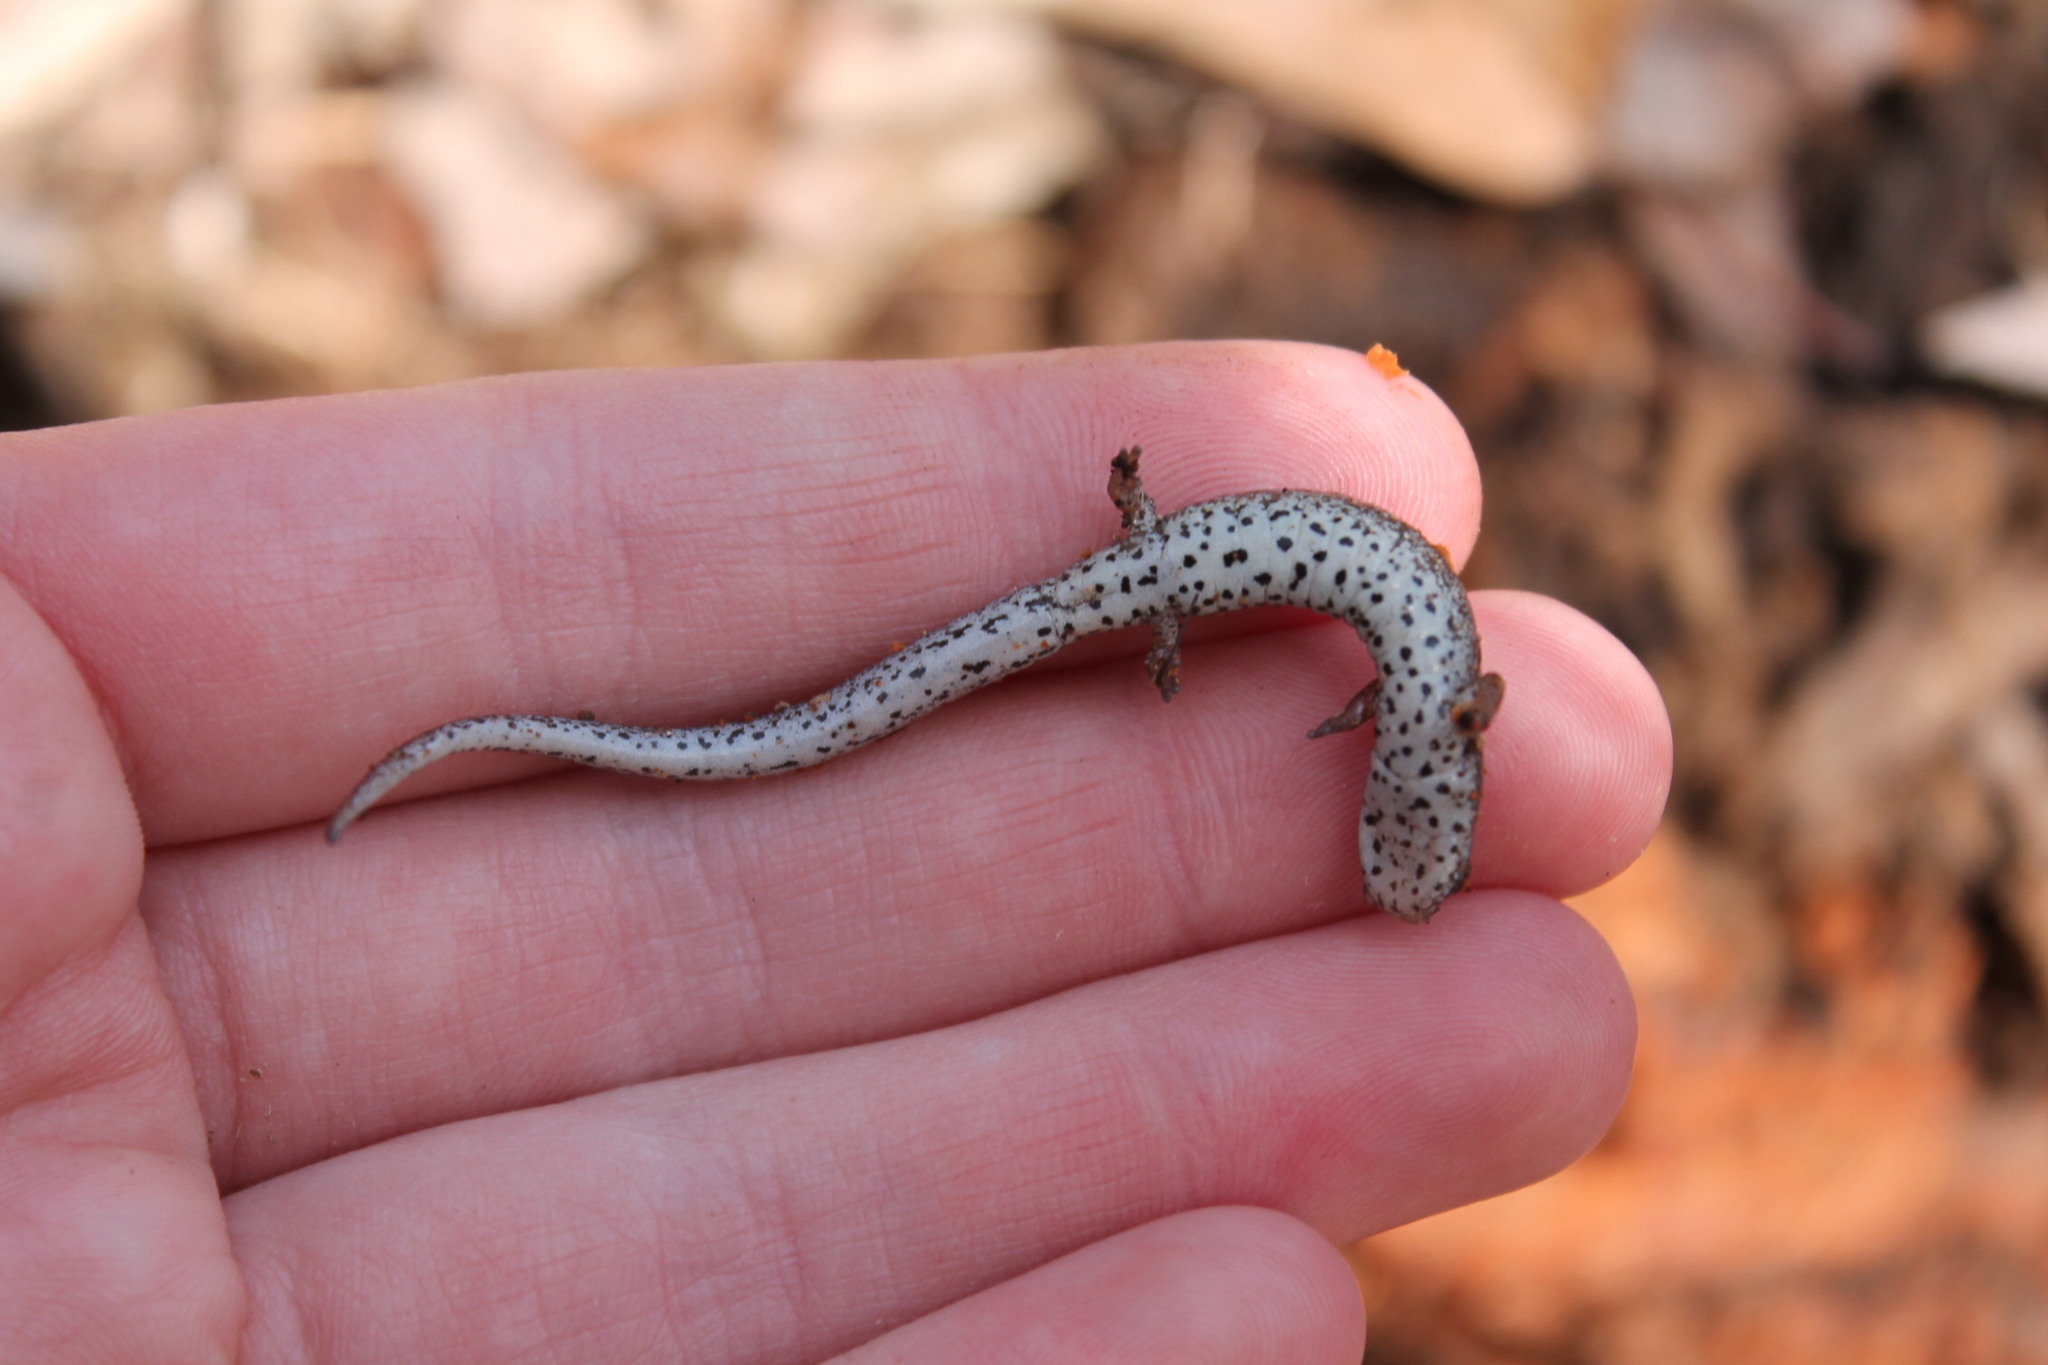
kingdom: Animalia
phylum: Chordata
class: Amphibia
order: Caudata
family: Plethodontidae
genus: Hemidactylium
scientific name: Hemidactylium scutatum
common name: Four-toed salamander
